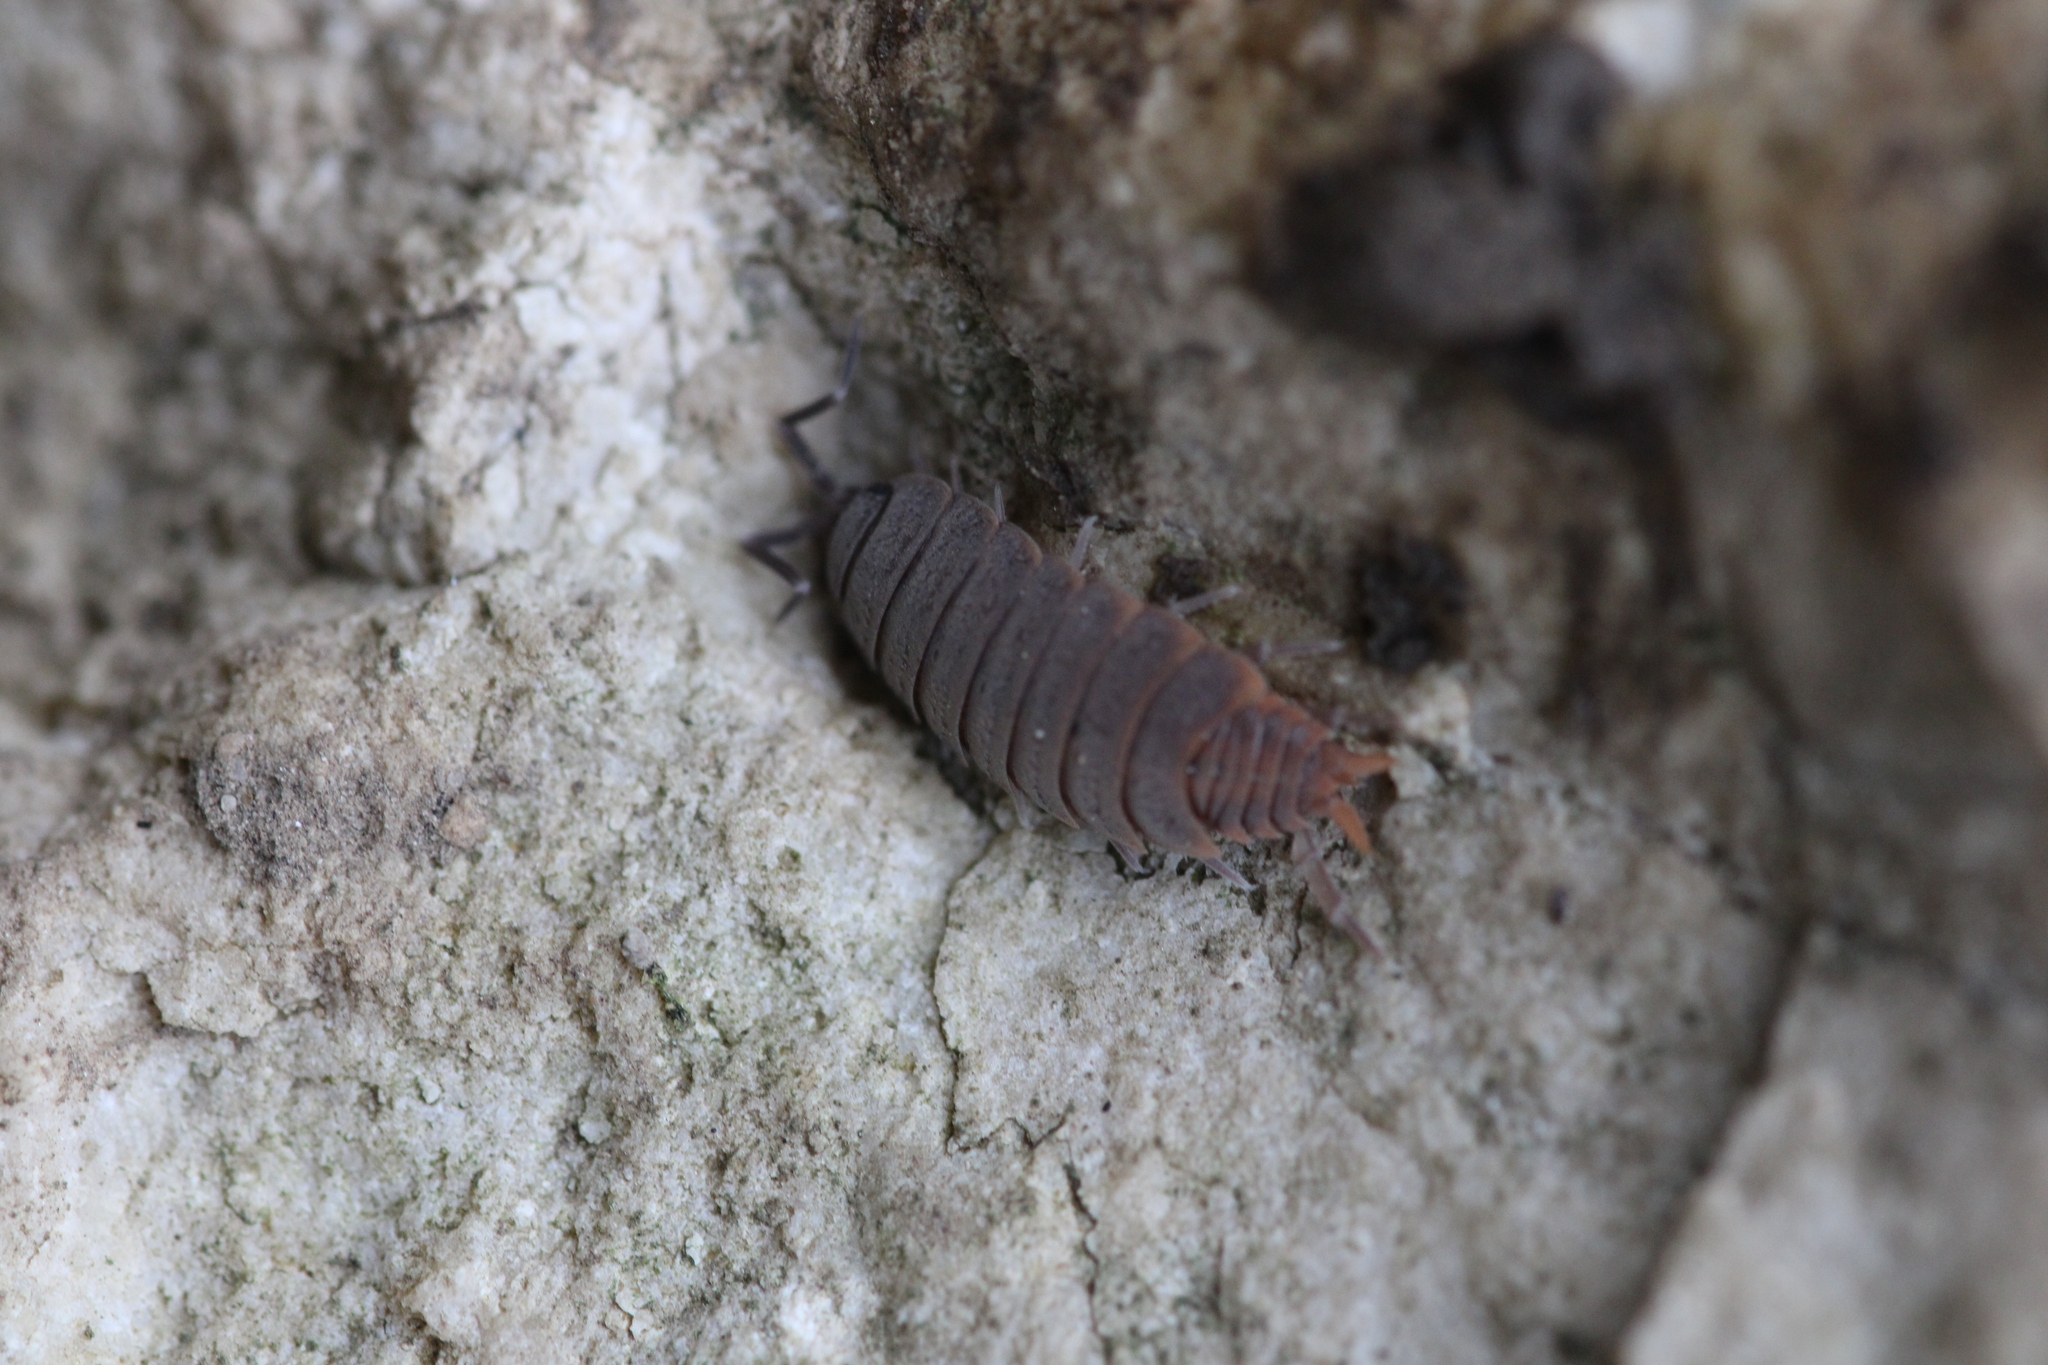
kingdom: Animalia
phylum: Arthropoda
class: Malacostraca
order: Isopoda
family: Porcellionidae
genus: Porcellionides
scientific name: Porcellionides pruinosus
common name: Plum woodlouse
